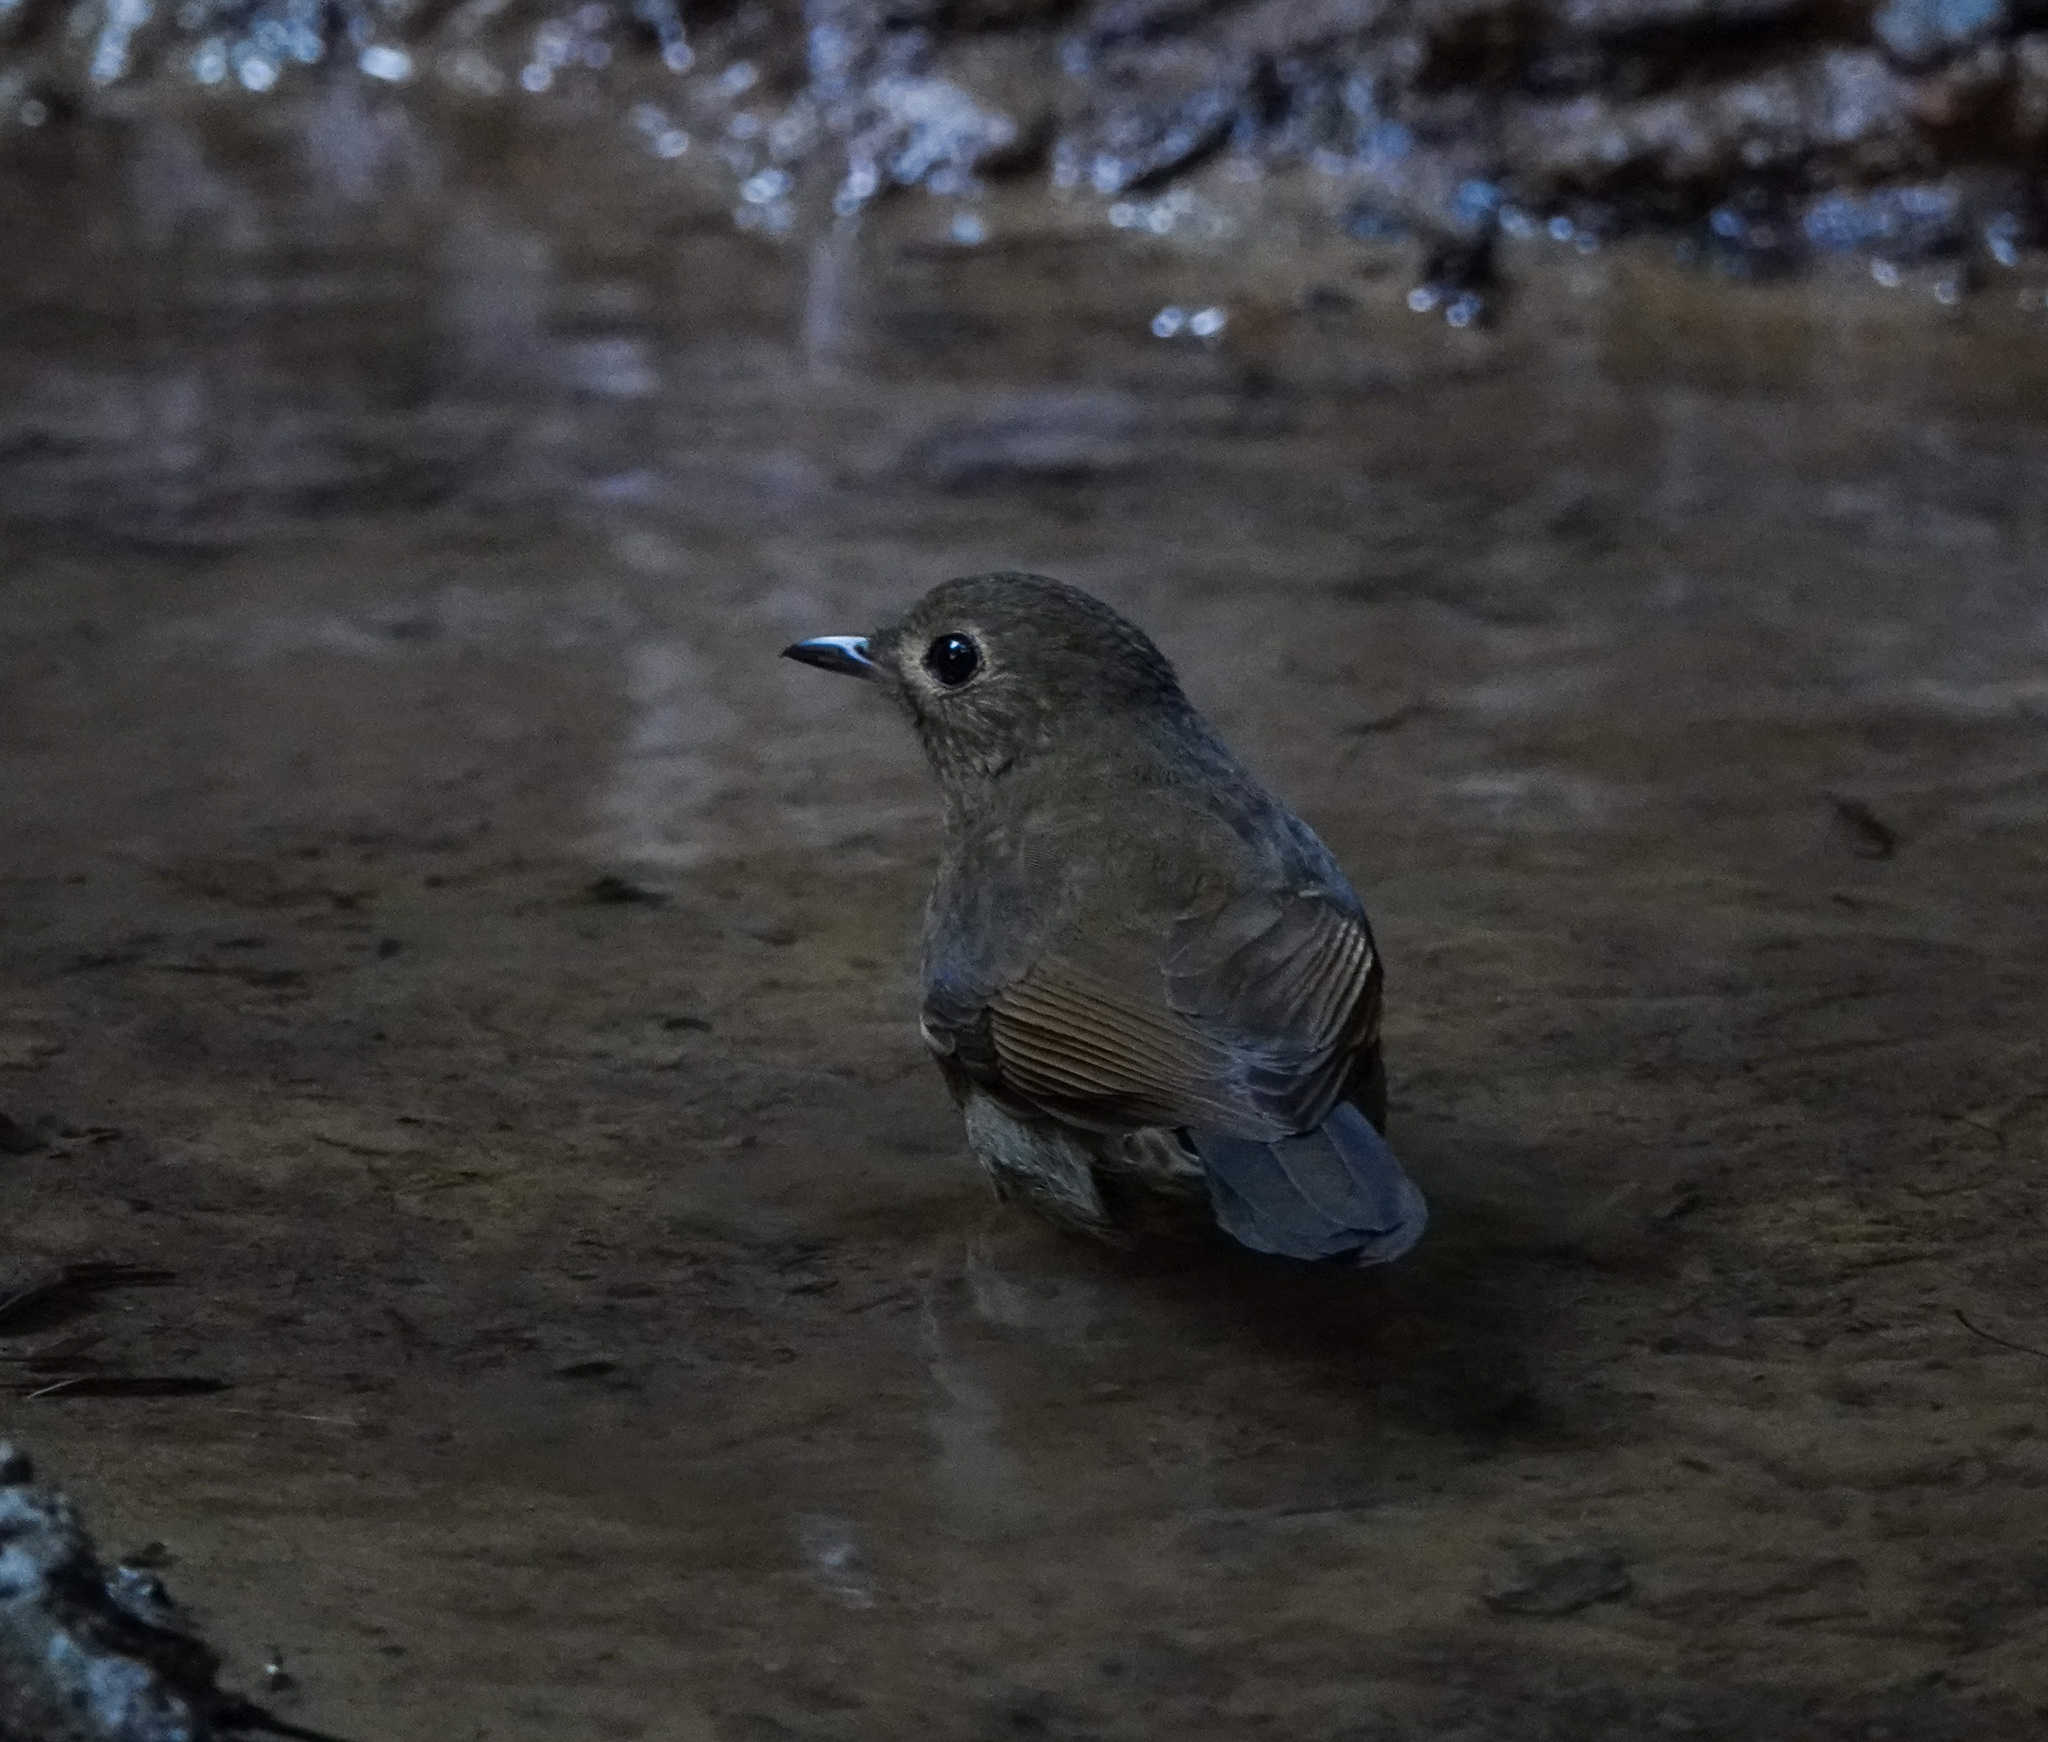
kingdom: Animalia
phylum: Chordata
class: Aves
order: Passeriformes
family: Muscicapidae
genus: Myiomela
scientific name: Myiomela leucura
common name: White-tailed robin
